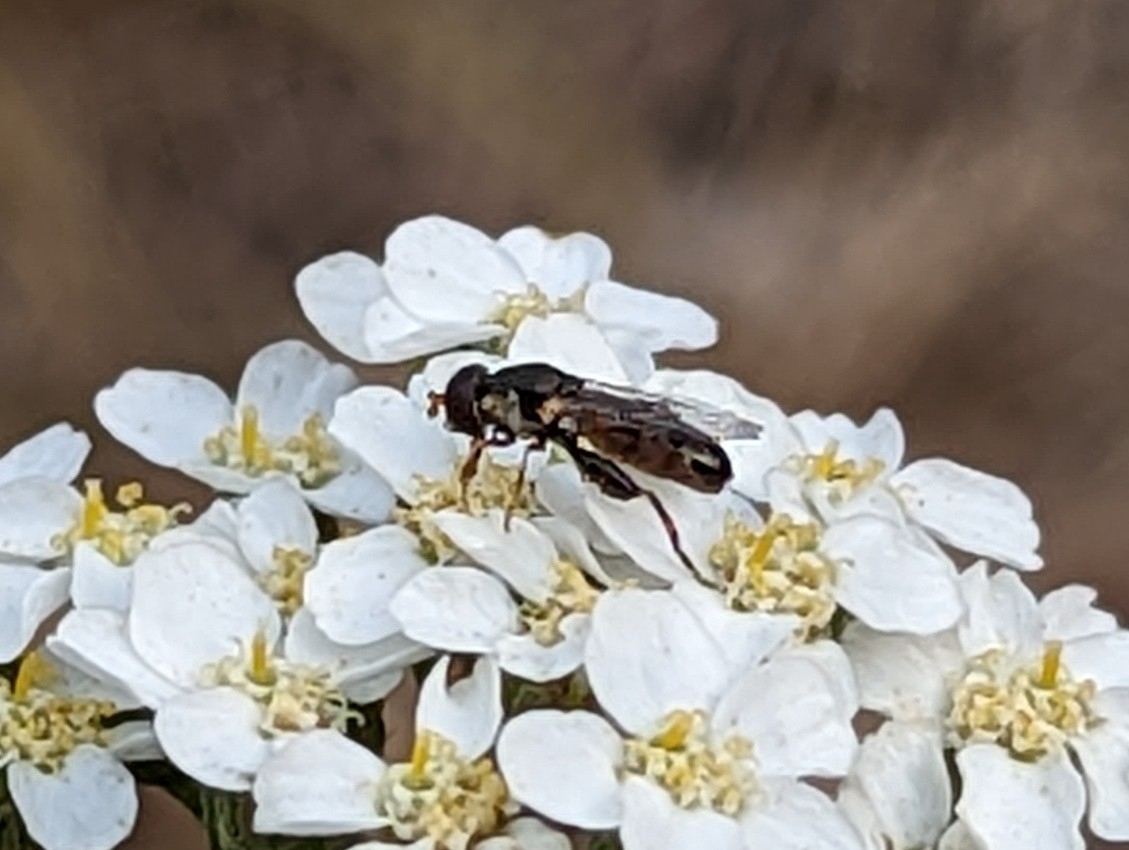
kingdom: Animalia
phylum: Arthropoda
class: Insecta
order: Diptera
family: Syrphidae
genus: Syritta
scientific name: Syritta pipiens
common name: Hover fly
